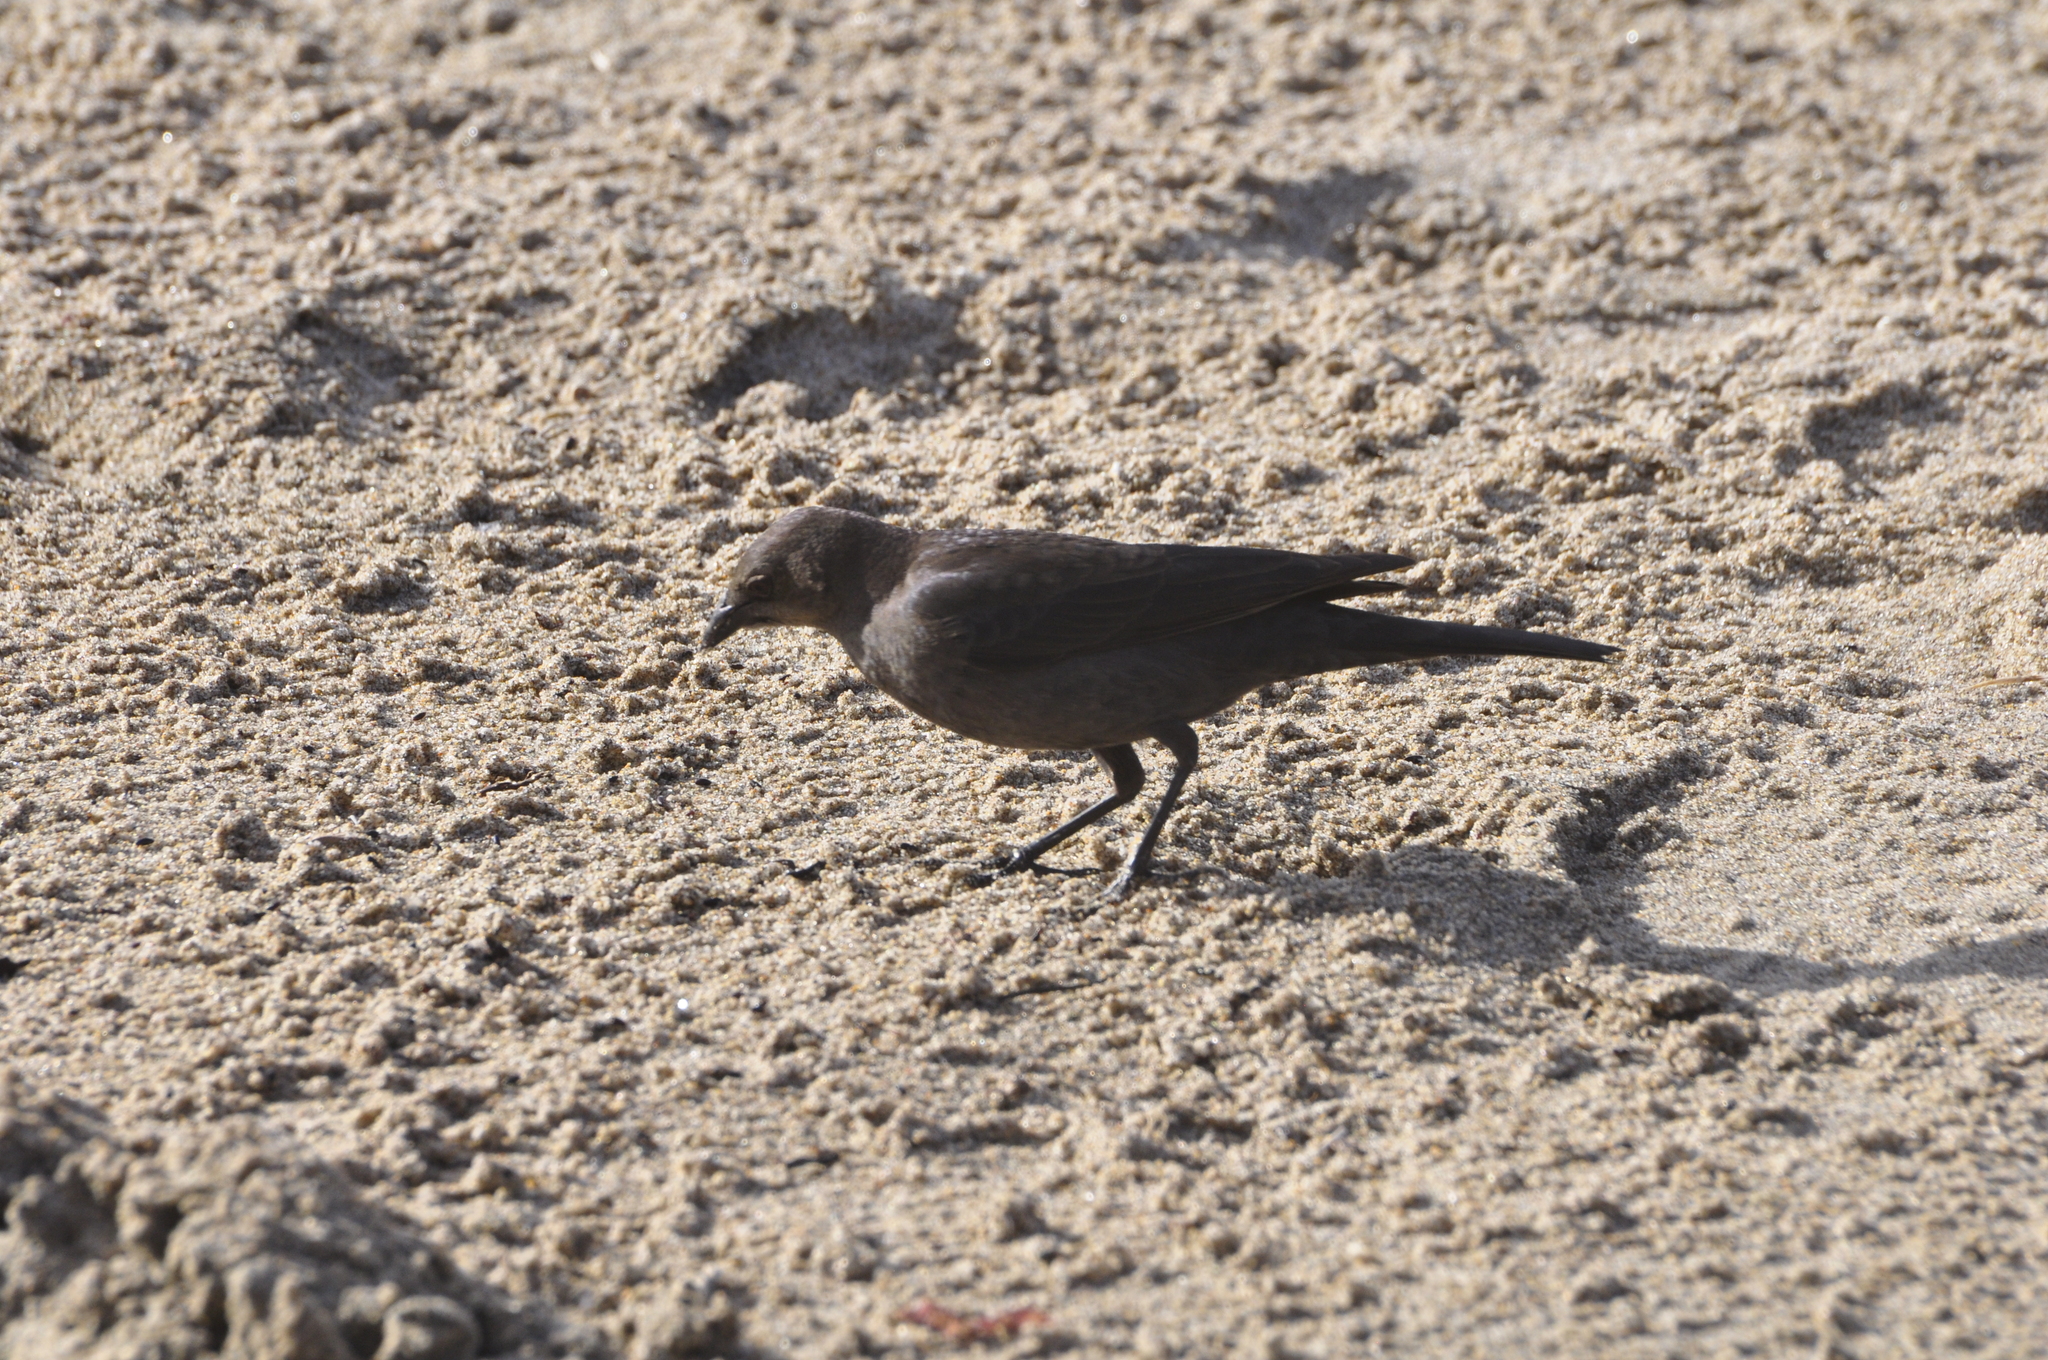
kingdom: Animalia
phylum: Chordata
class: Aves
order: Passeriformes
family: Icteridae
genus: Euphagus
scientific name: Euphagus cyanocephalus
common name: Brewer's blackbird
